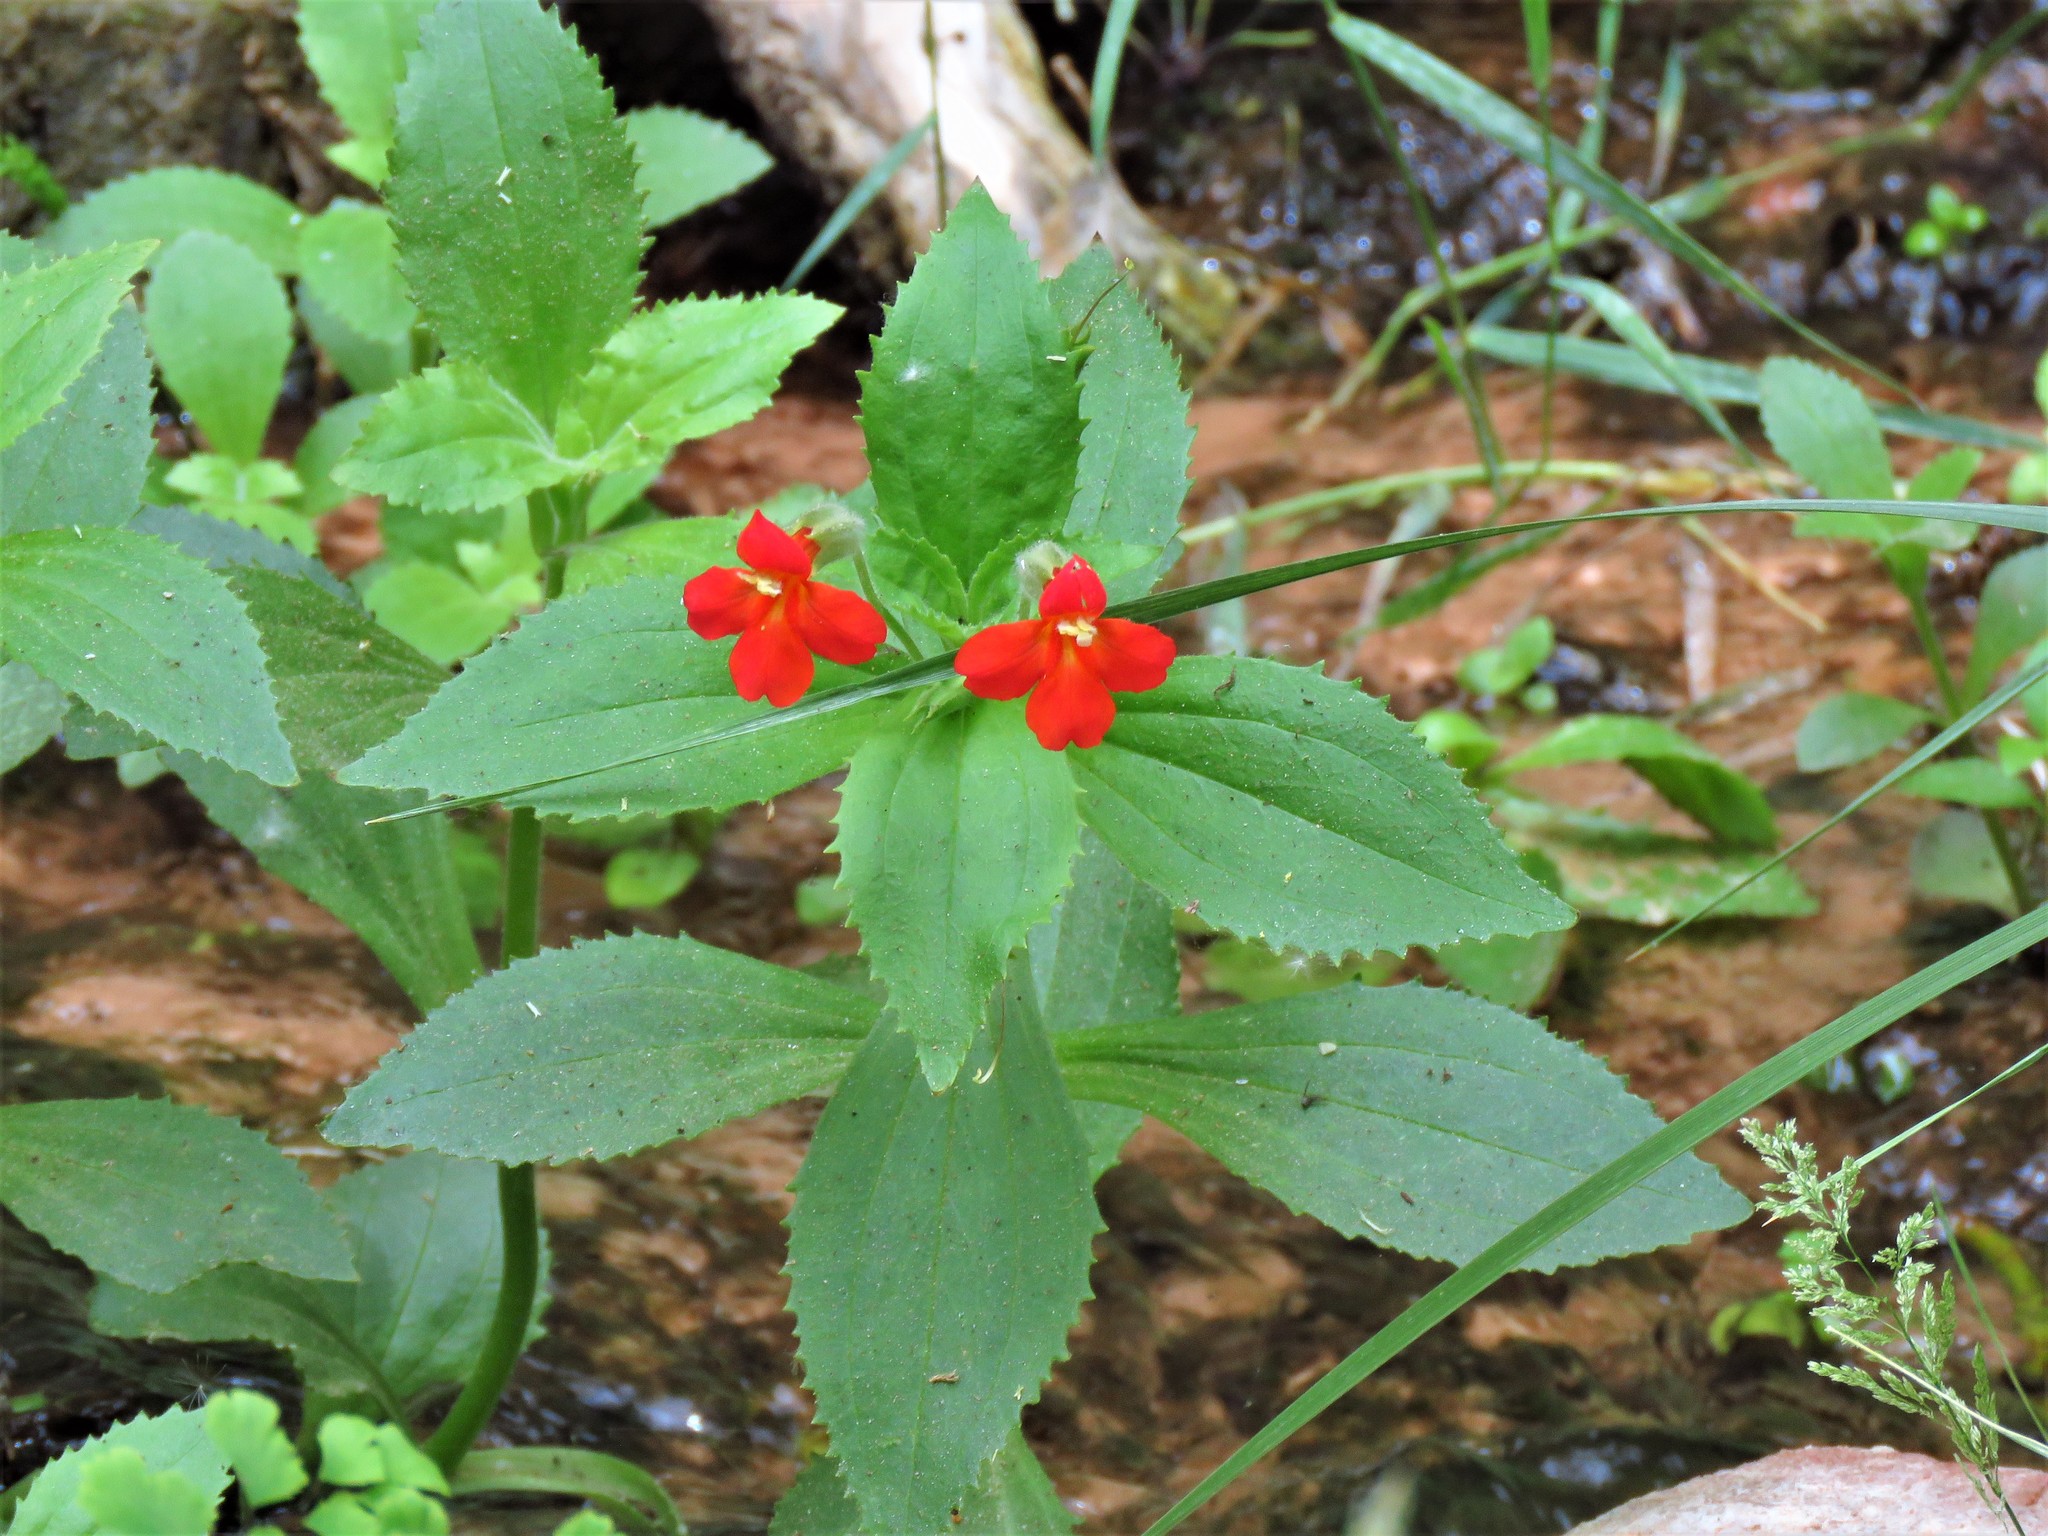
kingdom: Plantae
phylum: Tracheophyta
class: Magnoliopsida
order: Lamiales
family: Phrymaceae
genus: Erythranthe
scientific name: Erythranthe verbenacea
